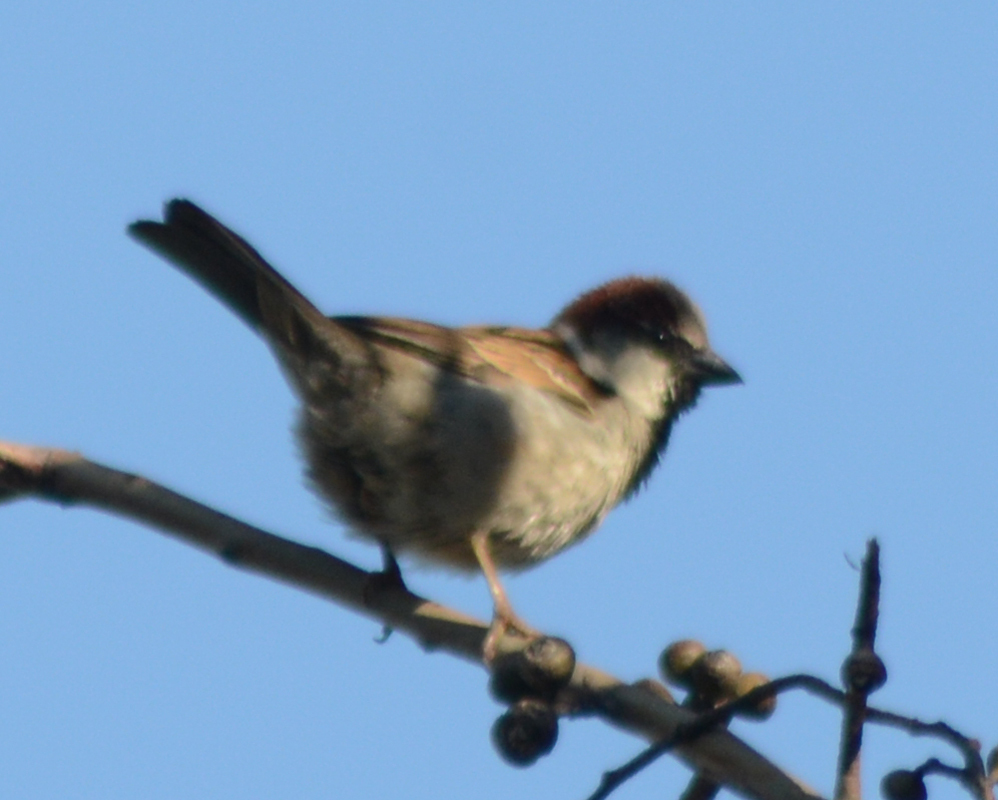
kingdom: Animalia
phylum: Chordata
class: Aves
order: Passeriformes
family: Passeridae
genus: Passer
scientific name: Passer domesticus
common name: House sparrow
